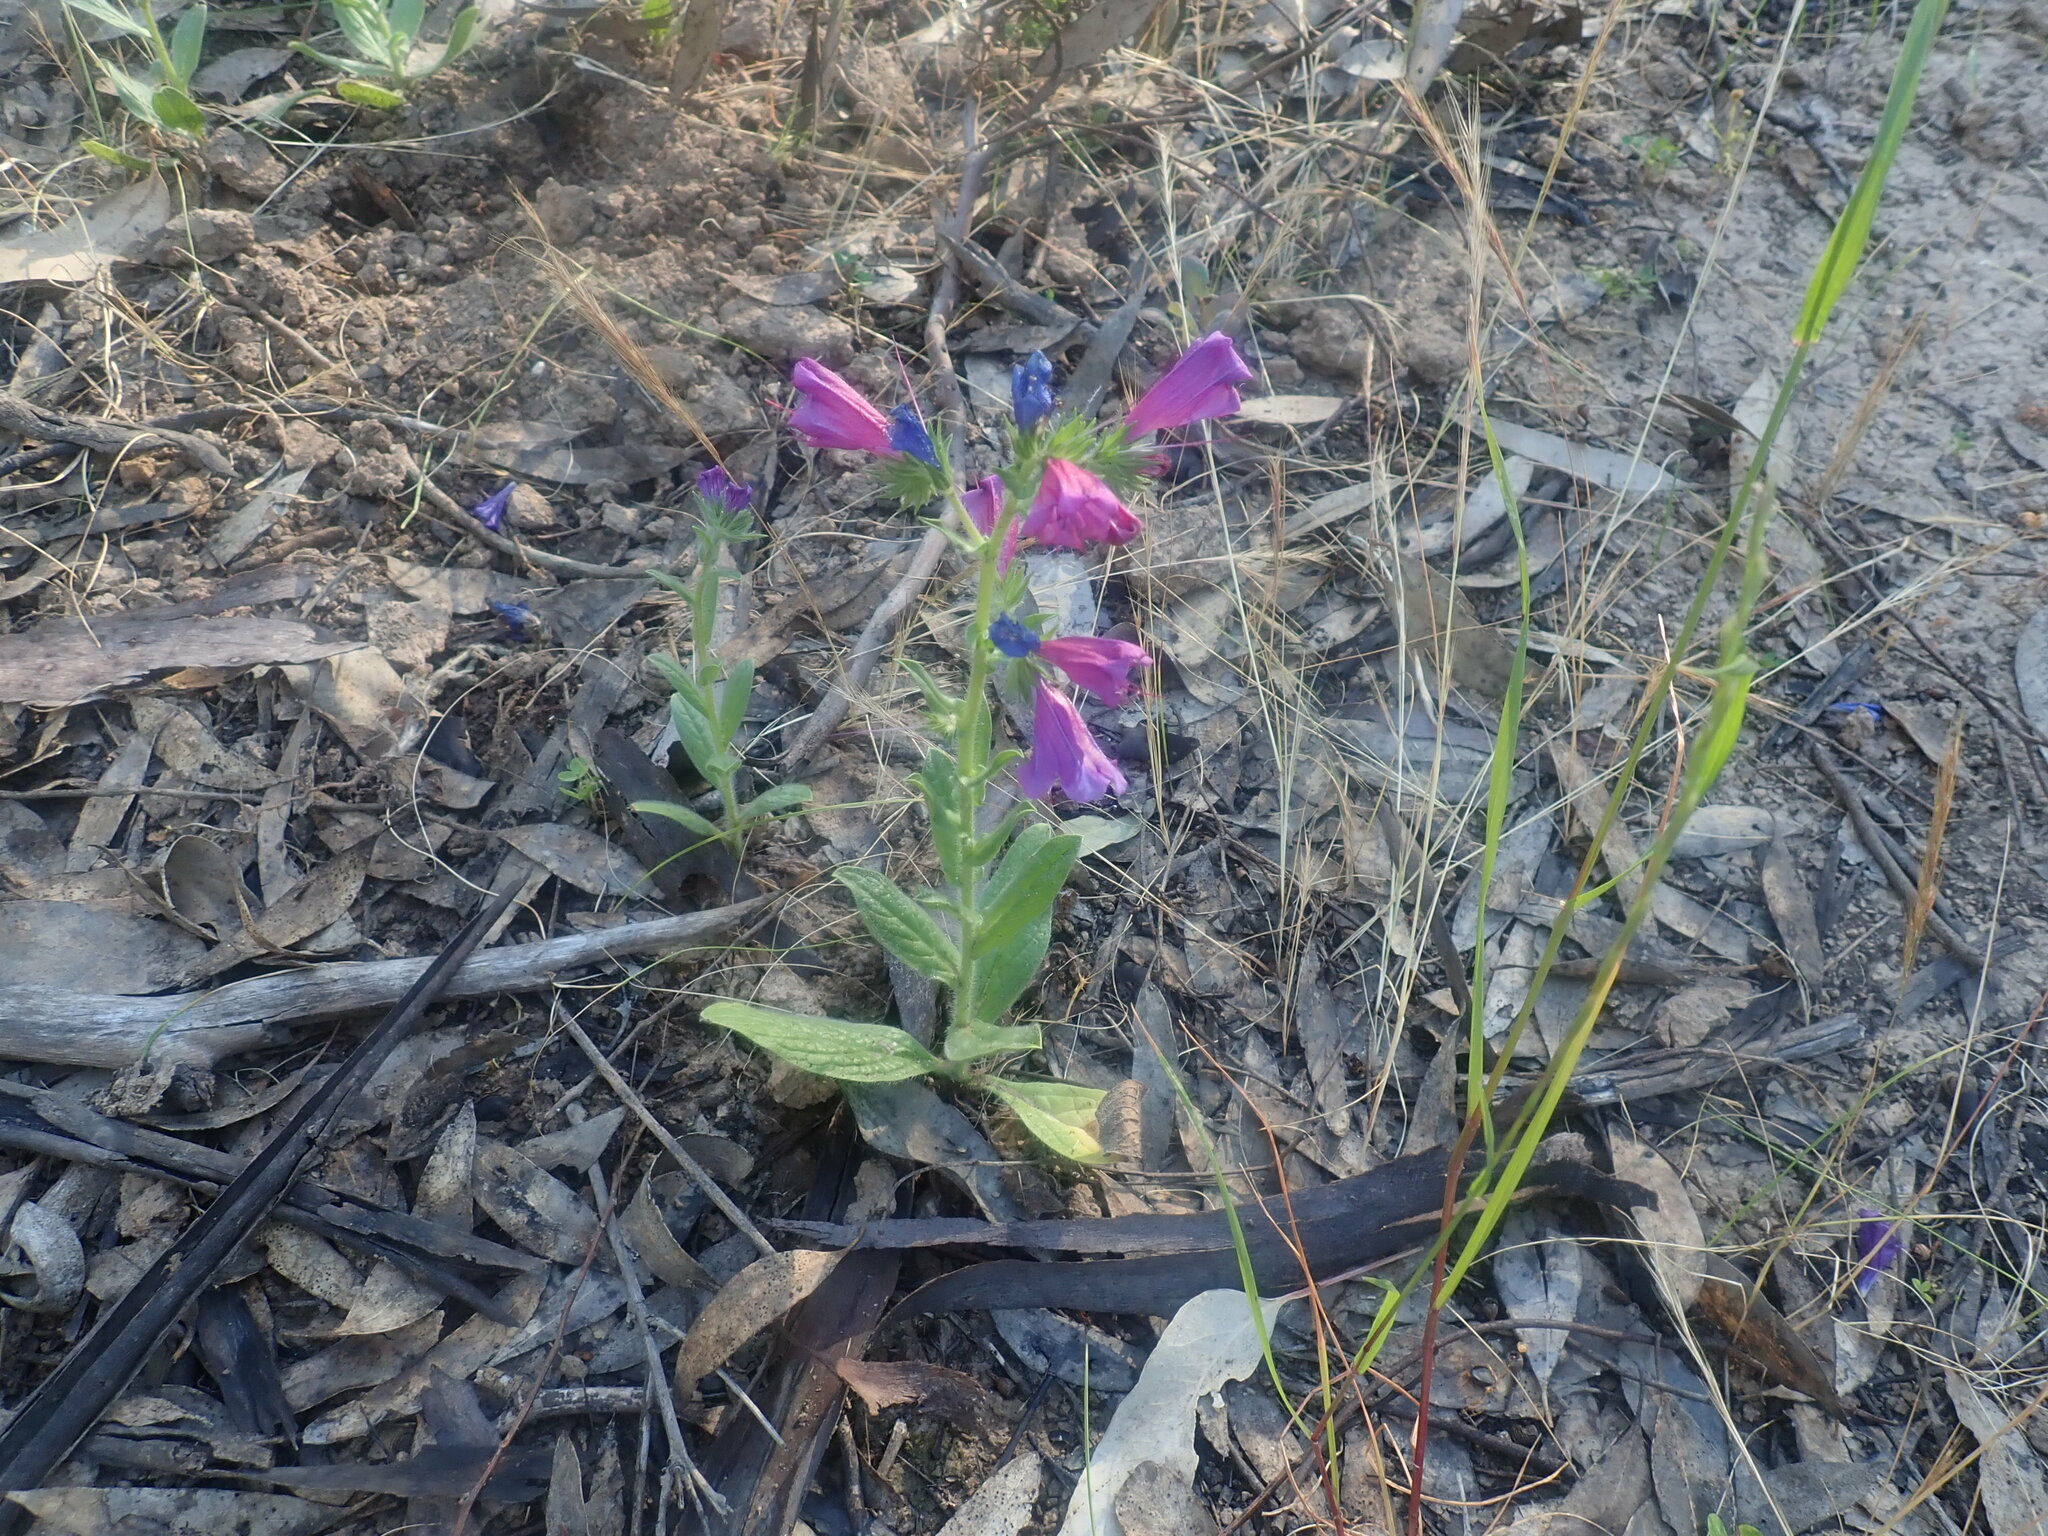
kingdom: Plantae
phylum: Tracheophyta
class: Magnoliopsida
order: Boraginales
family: Boraginaceae
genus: Echium
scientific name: Echium plantagineum
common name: Purple viper's-bugloss
